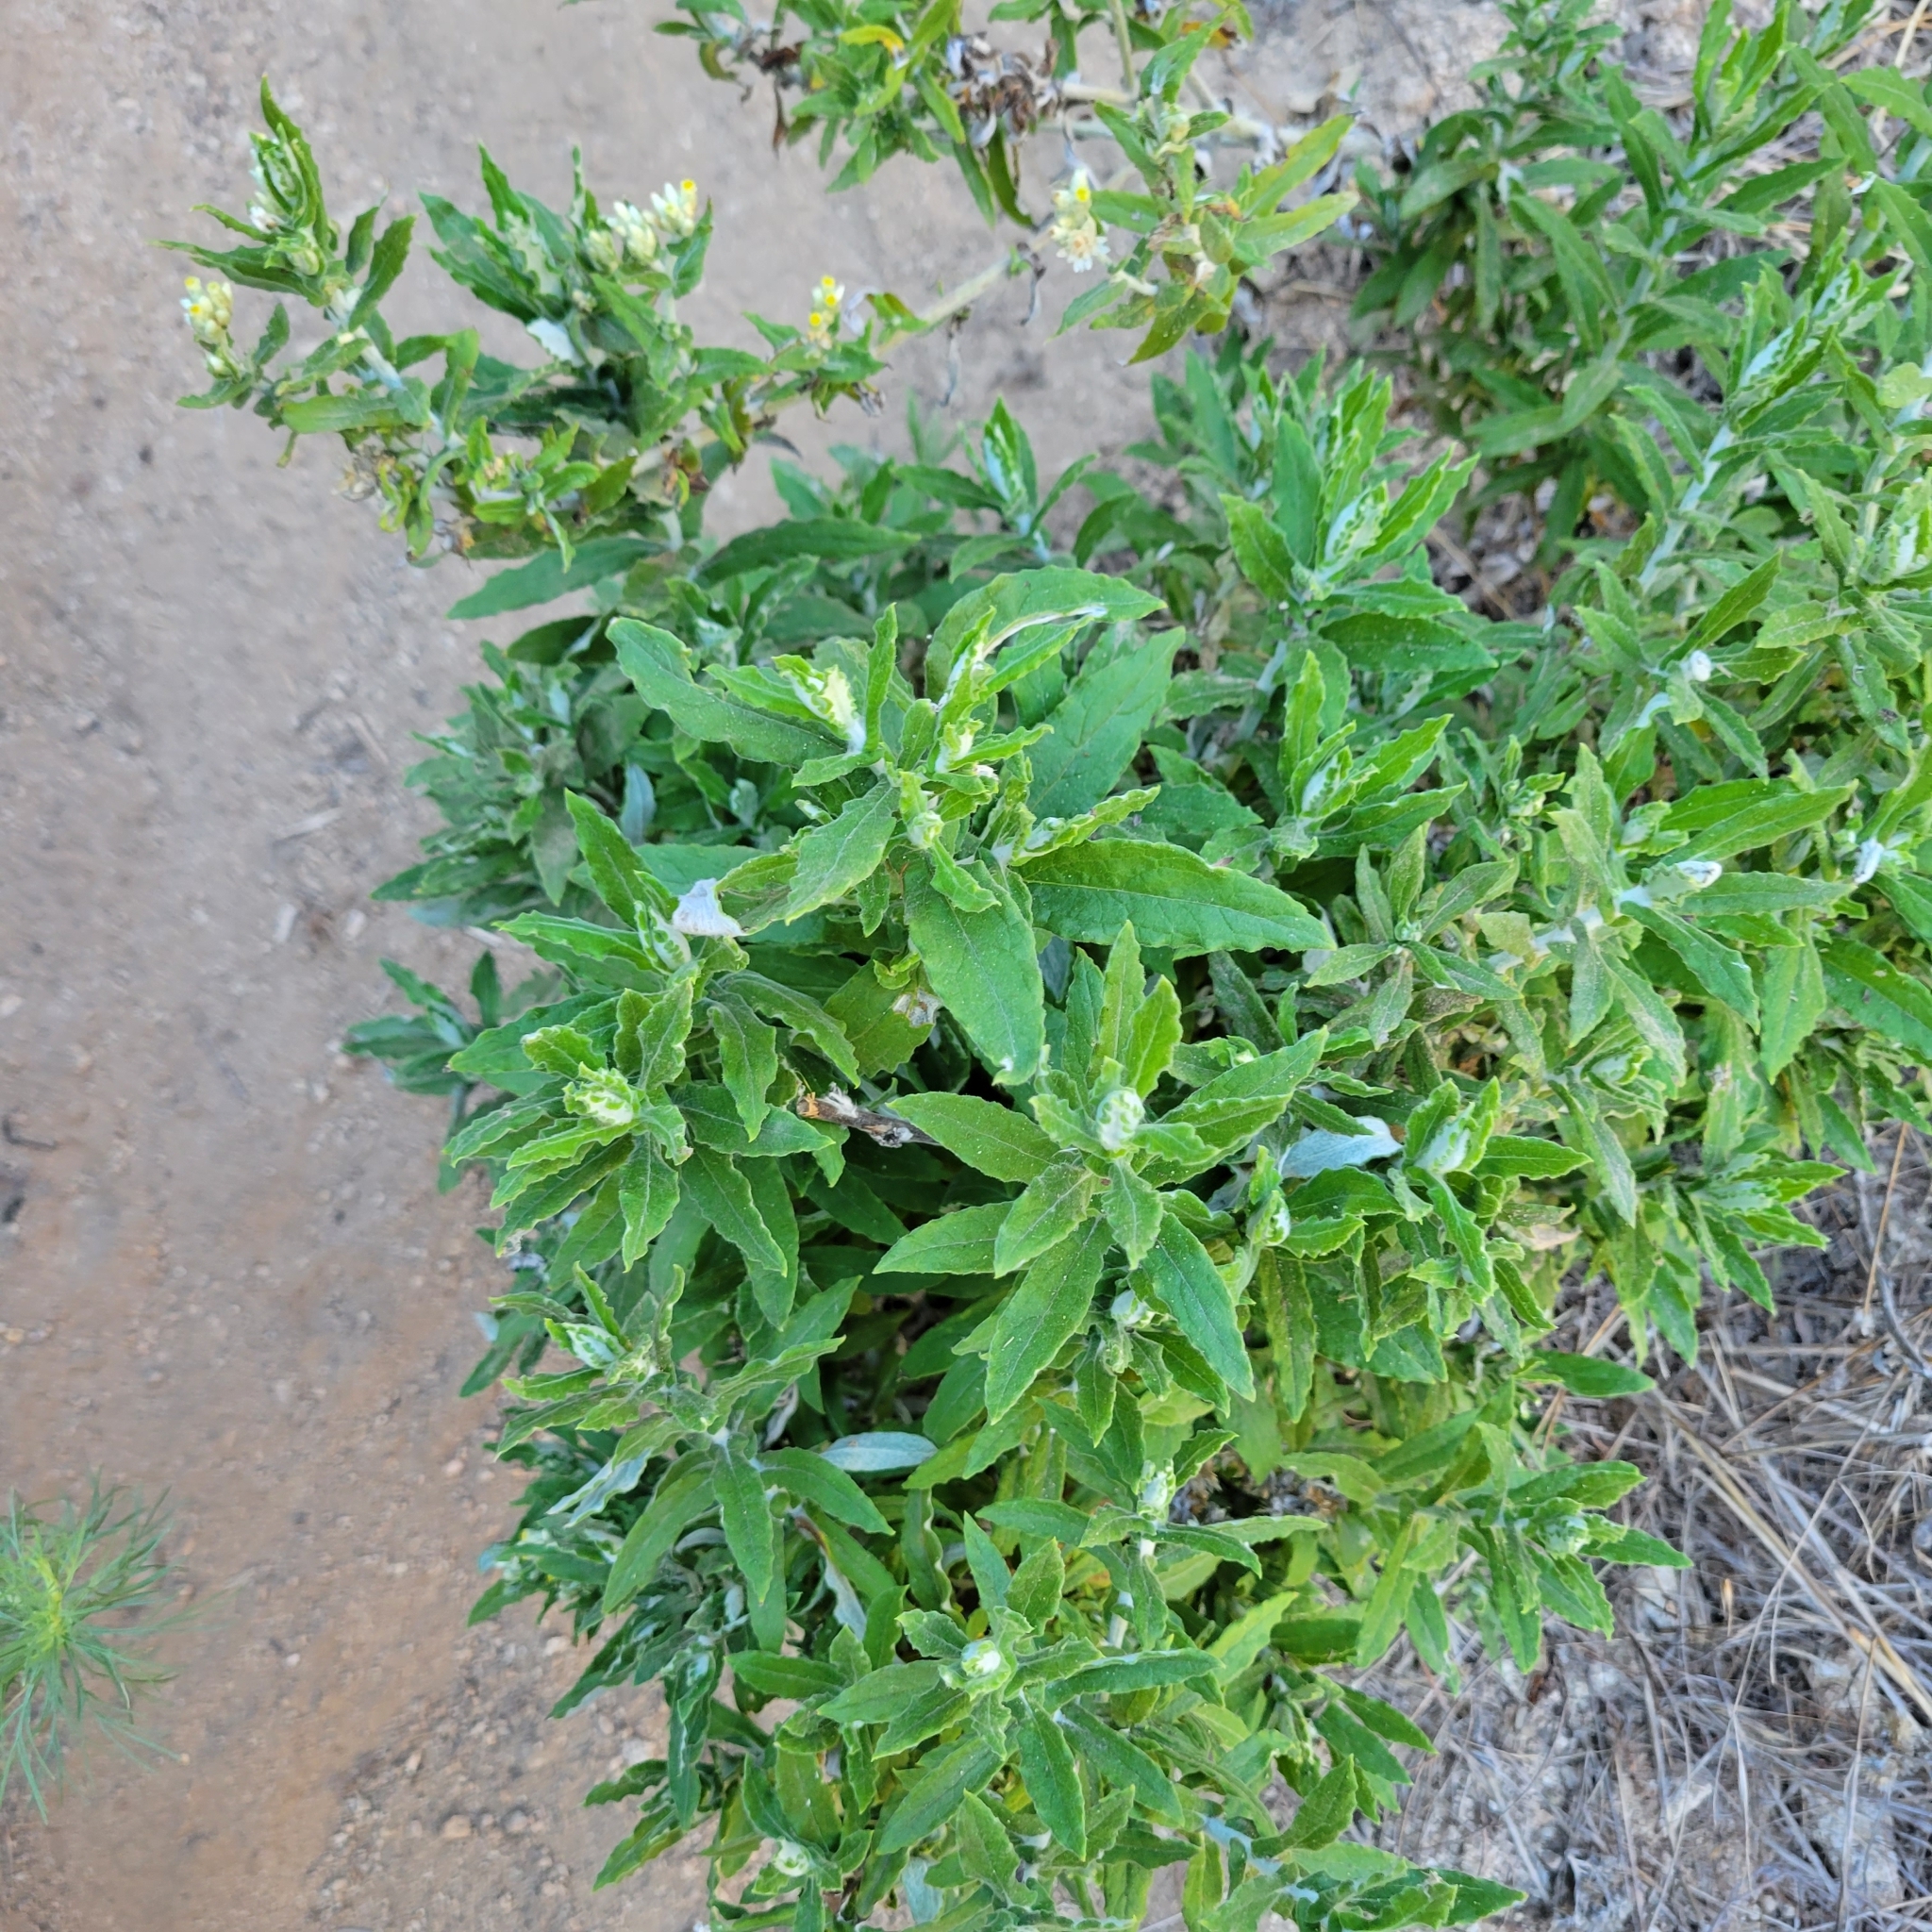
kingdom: Plantae
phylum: Tracheophyta
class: Magnoliopsida
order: Asterales
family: Asteraceae
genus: Pseudognaphalium
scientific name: Pseudognaphalium biolettii
